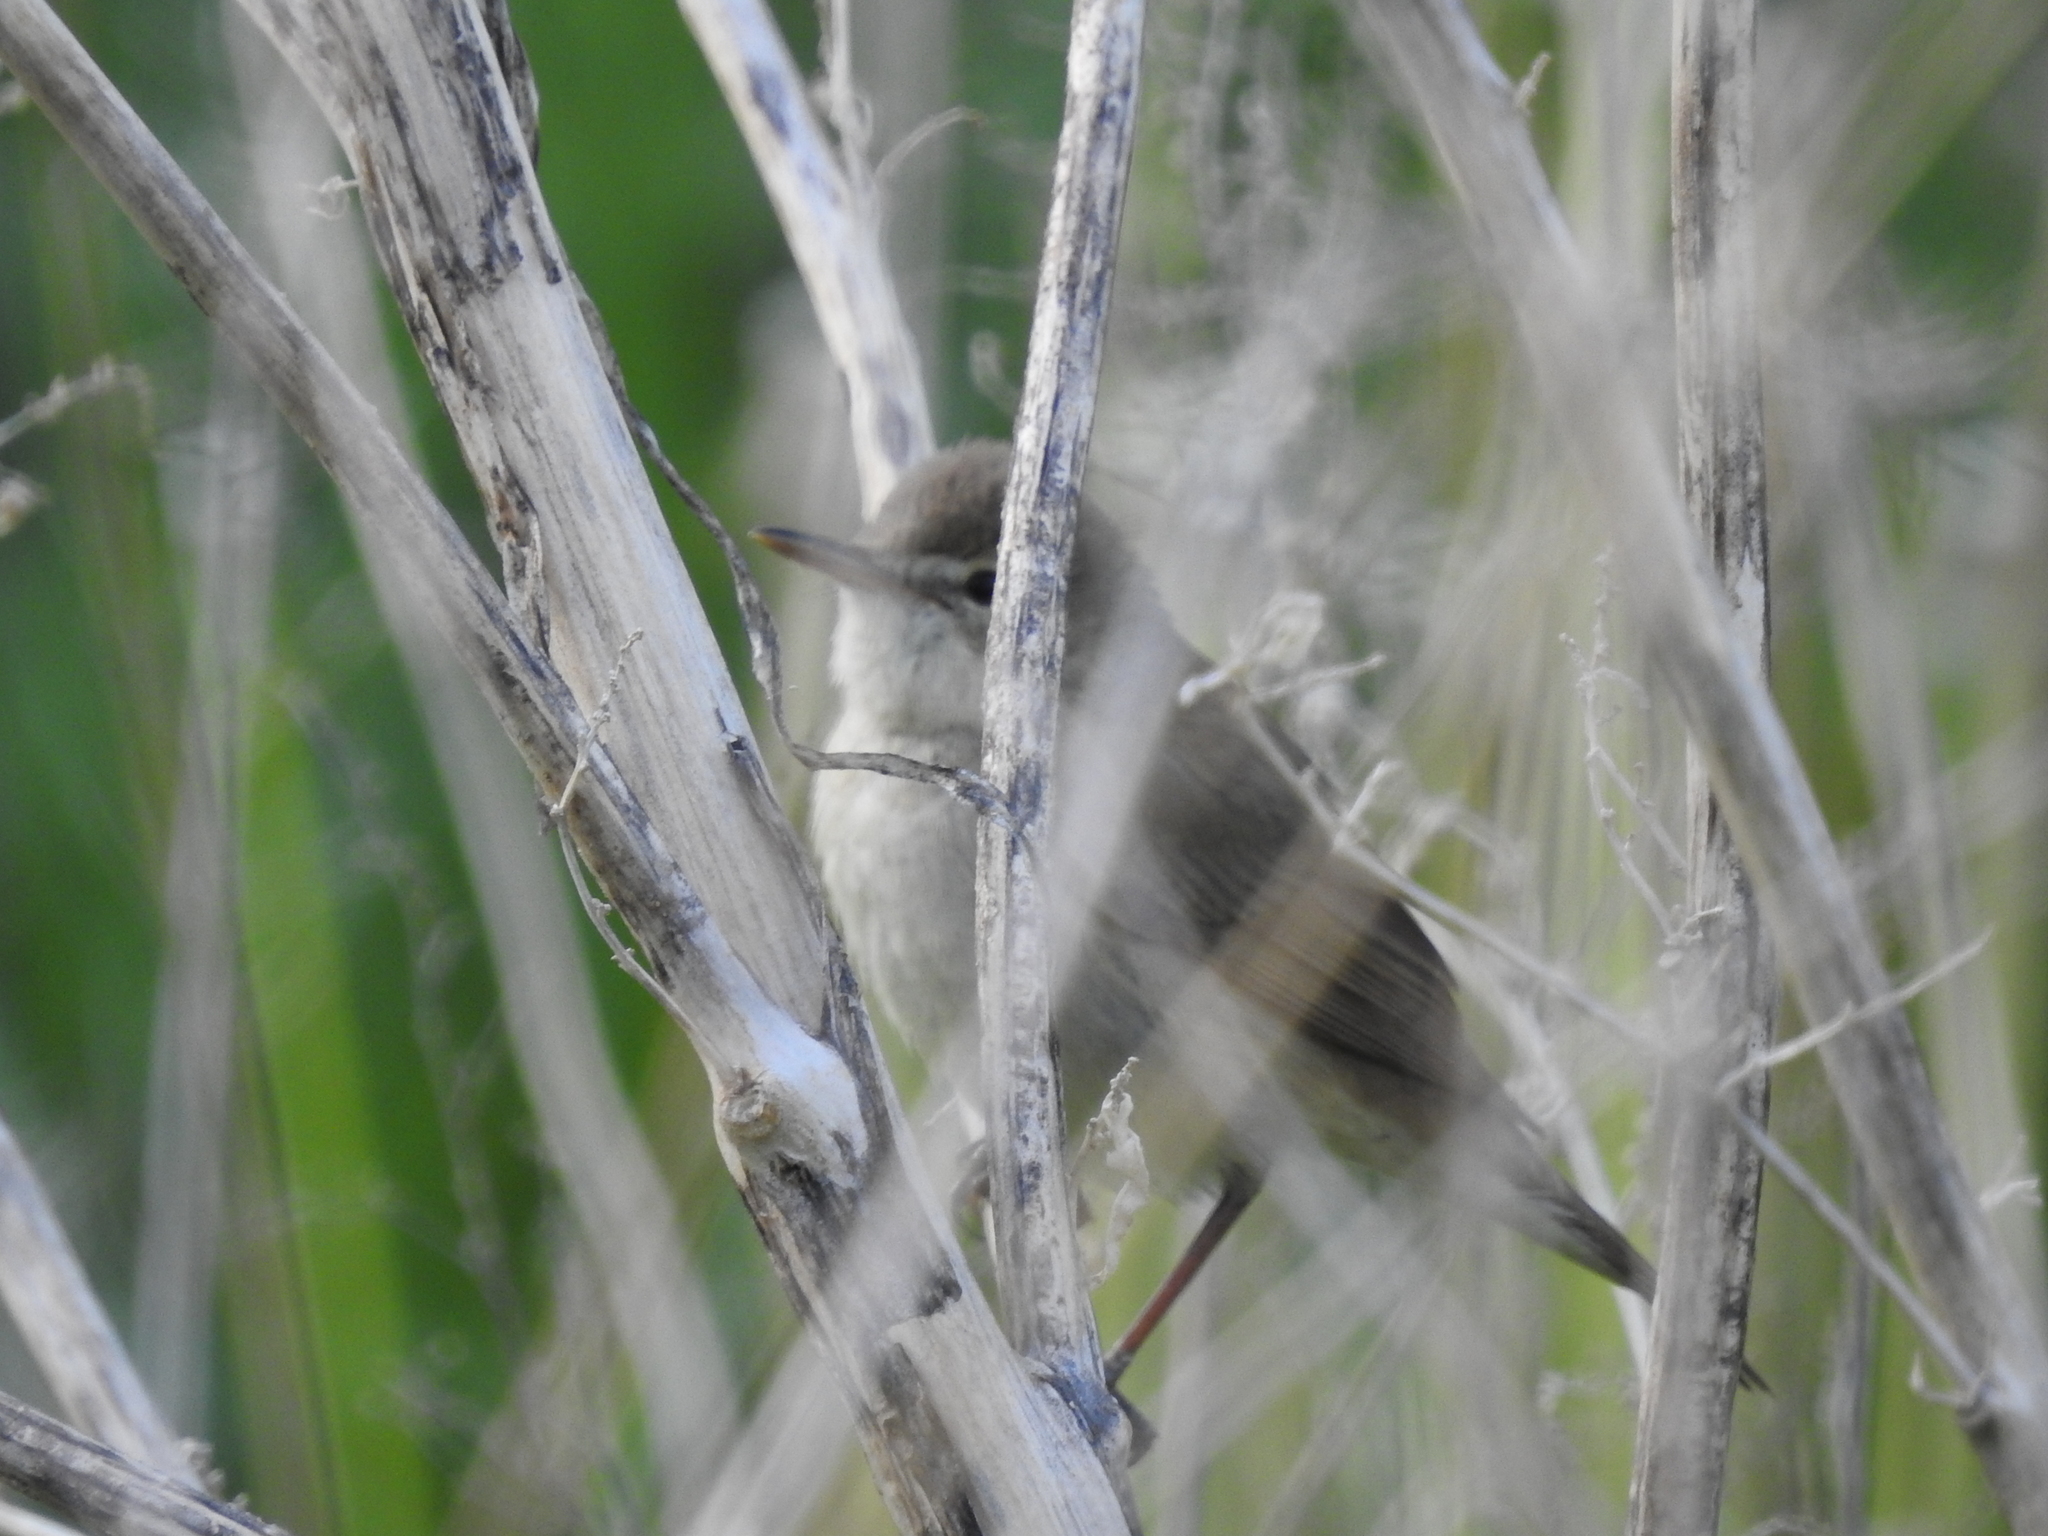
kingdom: Animalia
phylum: Chordata
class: Aves
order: Passeriformes
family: Acrocephalidae
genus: Acrocephalus
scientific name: Acrocephalus dumetorum
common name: Blyth's reed warbler
